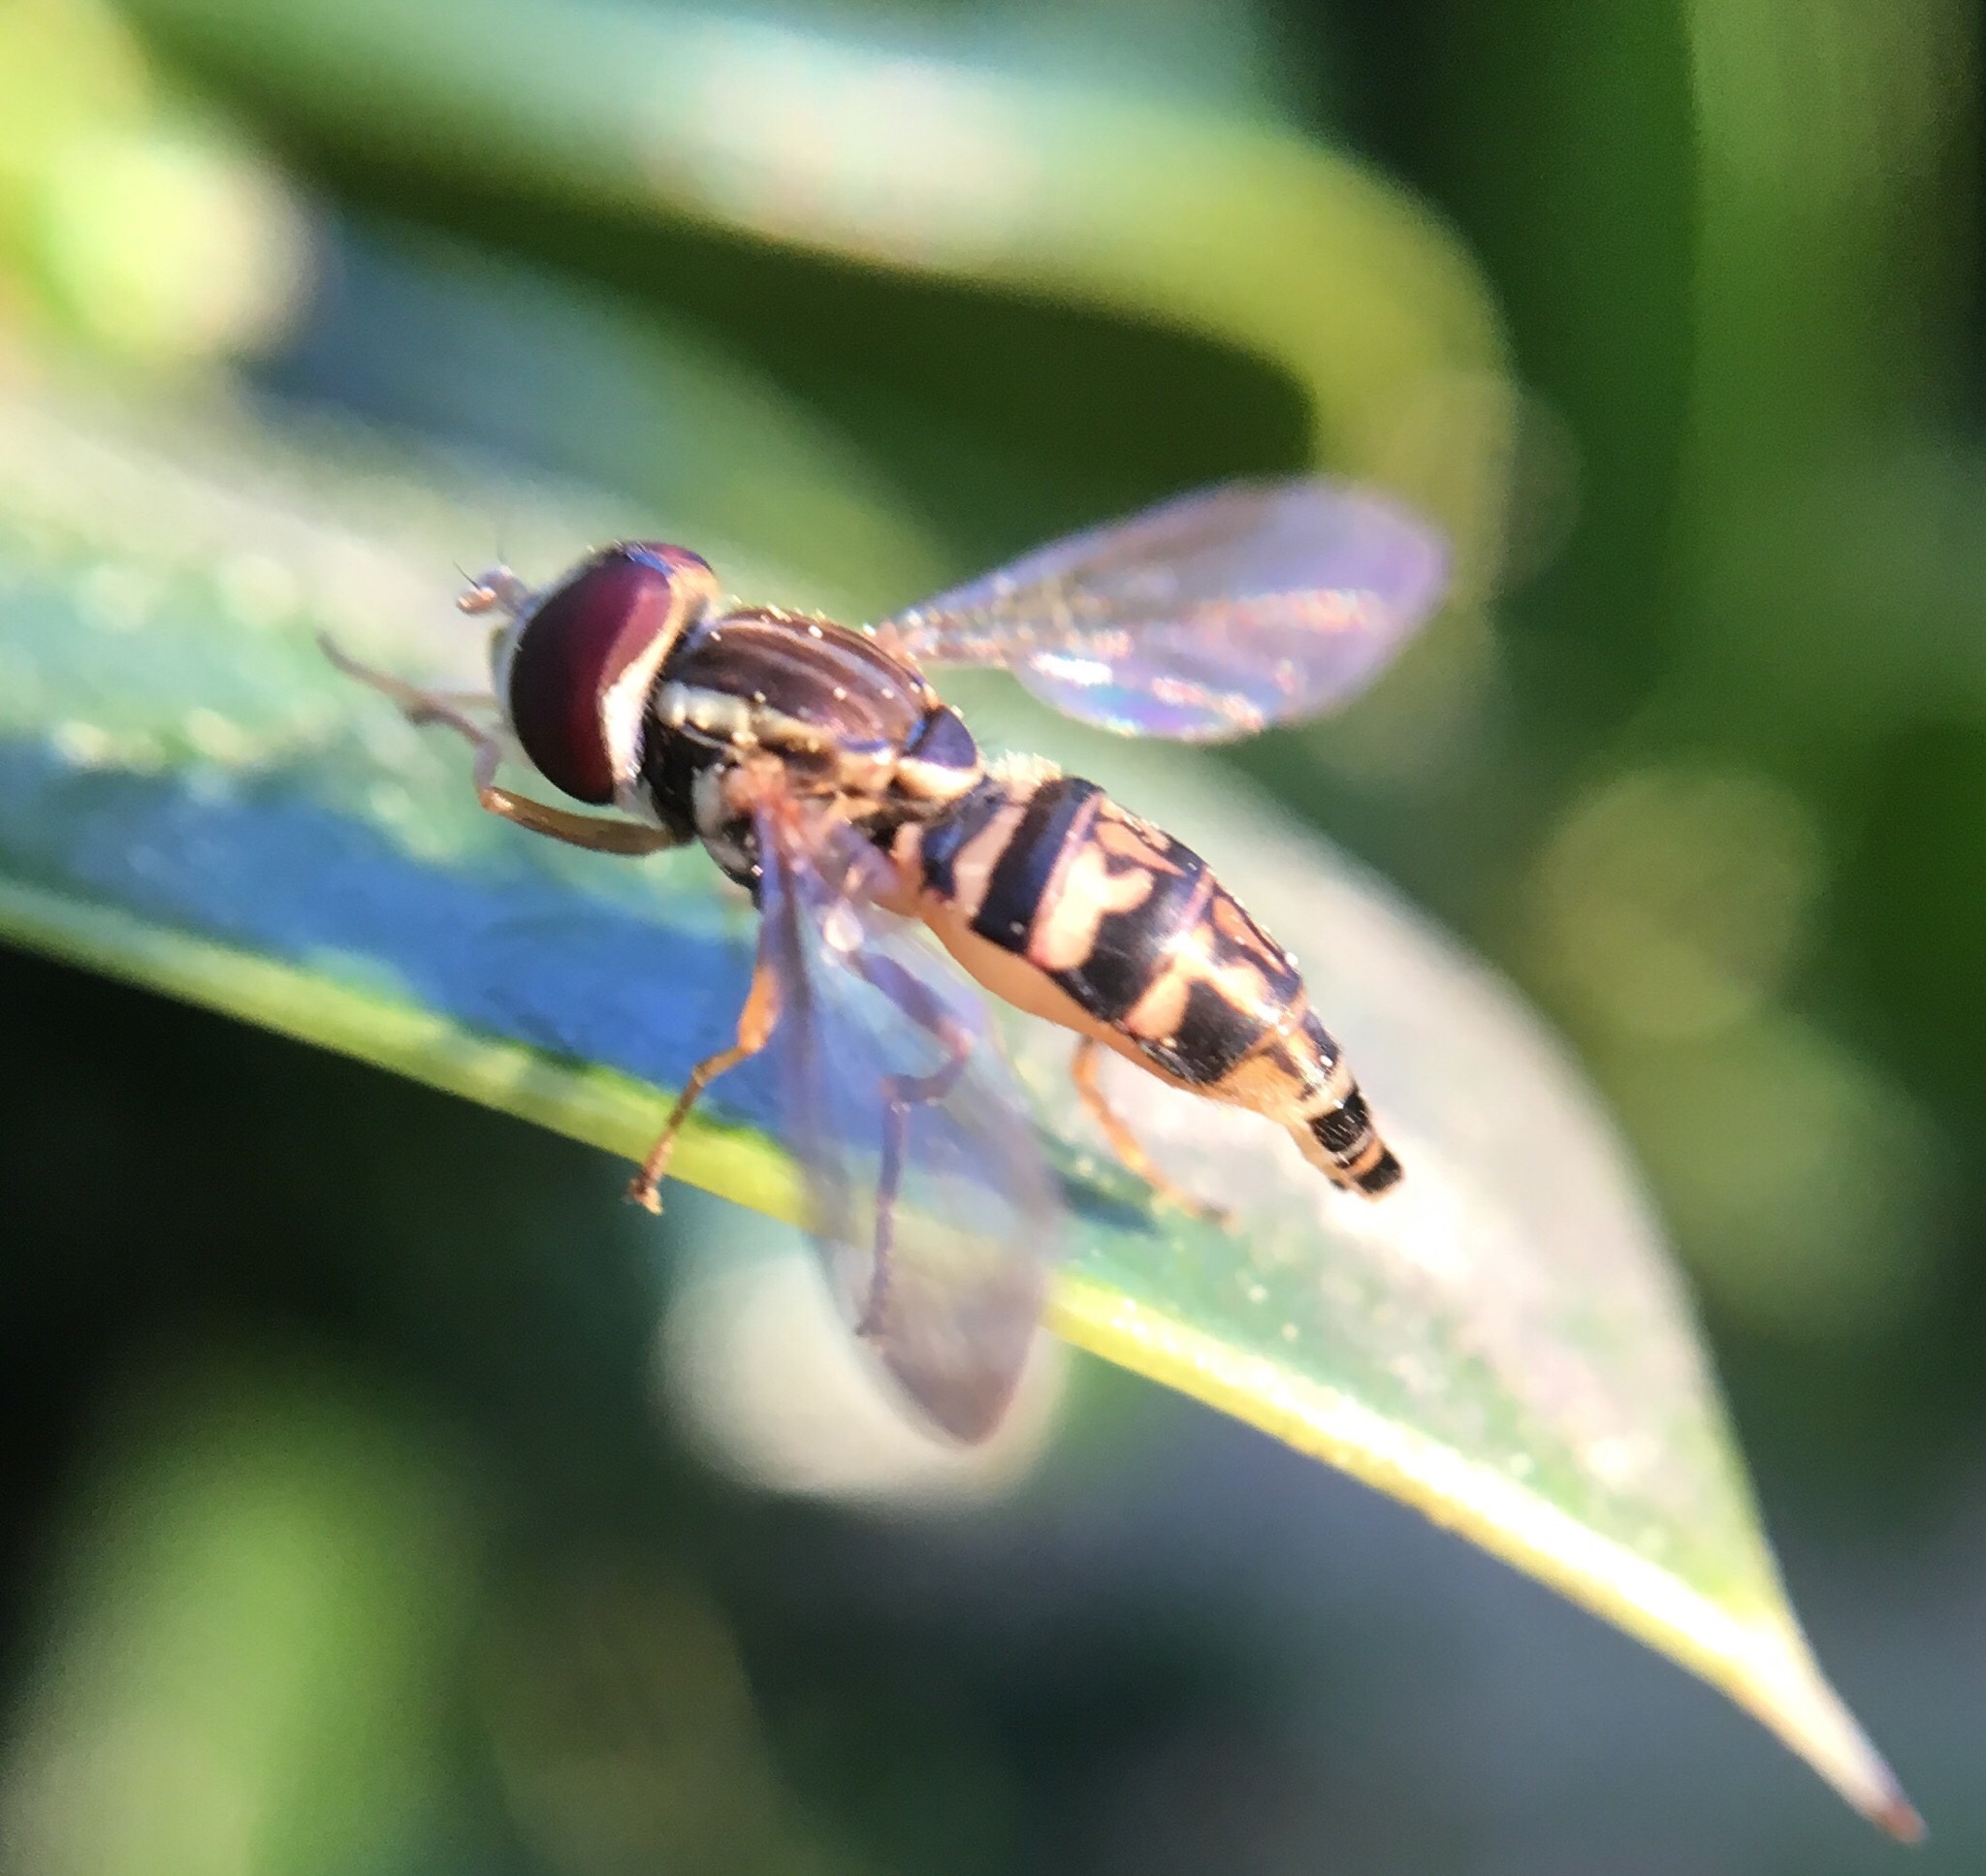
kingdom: Animalia
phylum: Arthropoda
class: Insecta
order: Diptera
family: Syrphidae
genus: Toxomerus
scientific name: Toxomerus geminatus
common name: Eastern calligrapher
